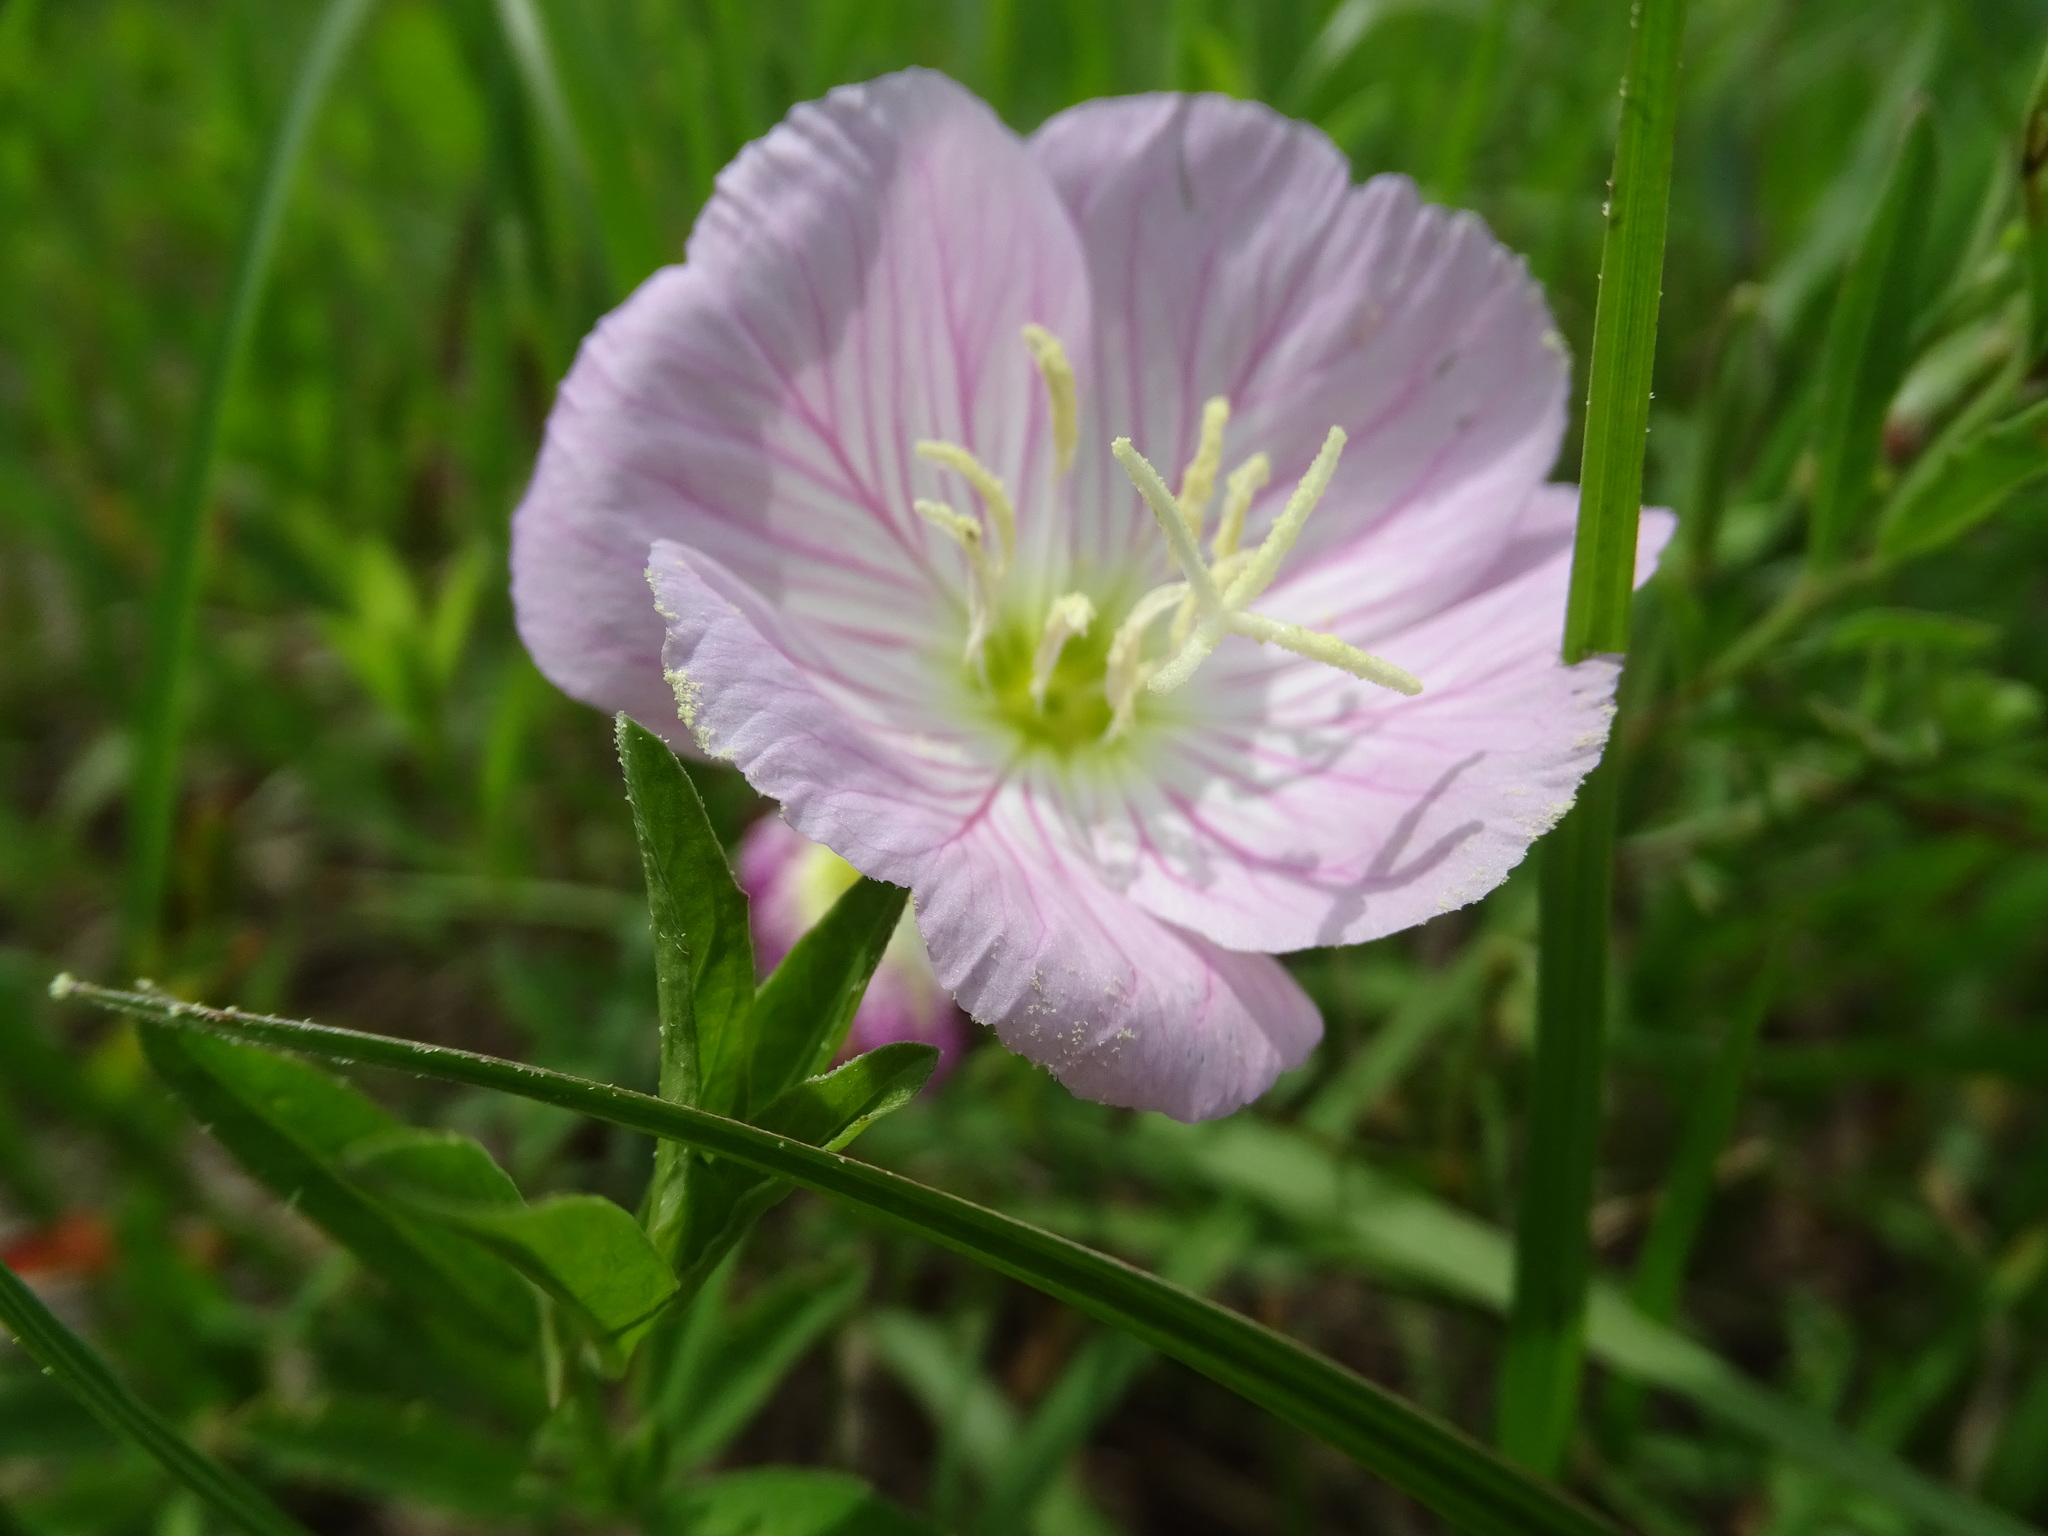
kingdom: Plantae
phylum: Tracheophyta
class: Magnoliopsida
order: Myrtales
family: Onagraceae
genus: Oenothera
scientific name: Oenothera speciosa
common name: White evening-primrose
